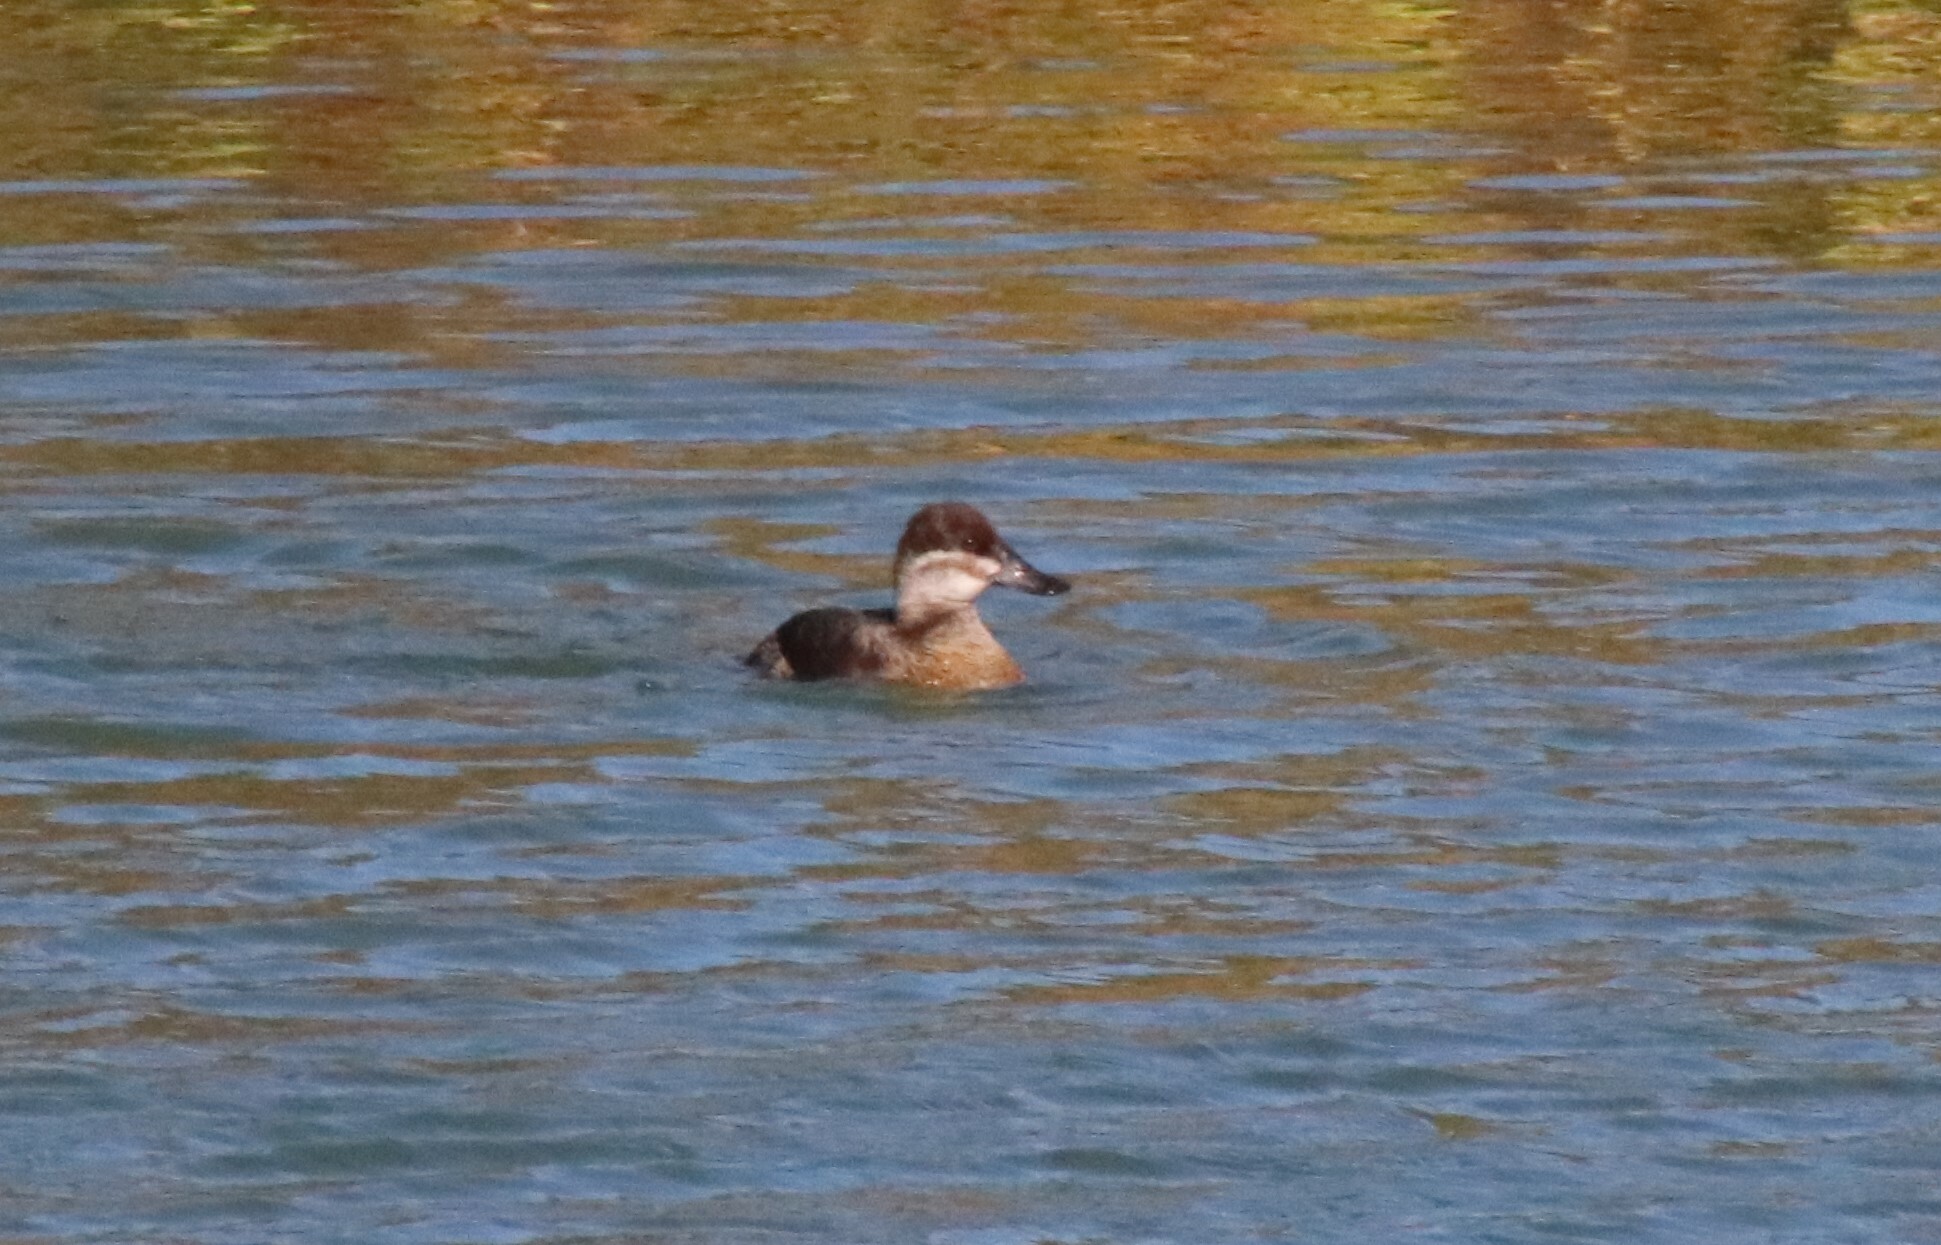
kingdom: Animalia
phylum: Chordata
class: Aves
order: Anseriformes
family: Anatidae
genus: Oxyura
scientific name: Oxyura jamaicensis
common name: Ruddy duck
